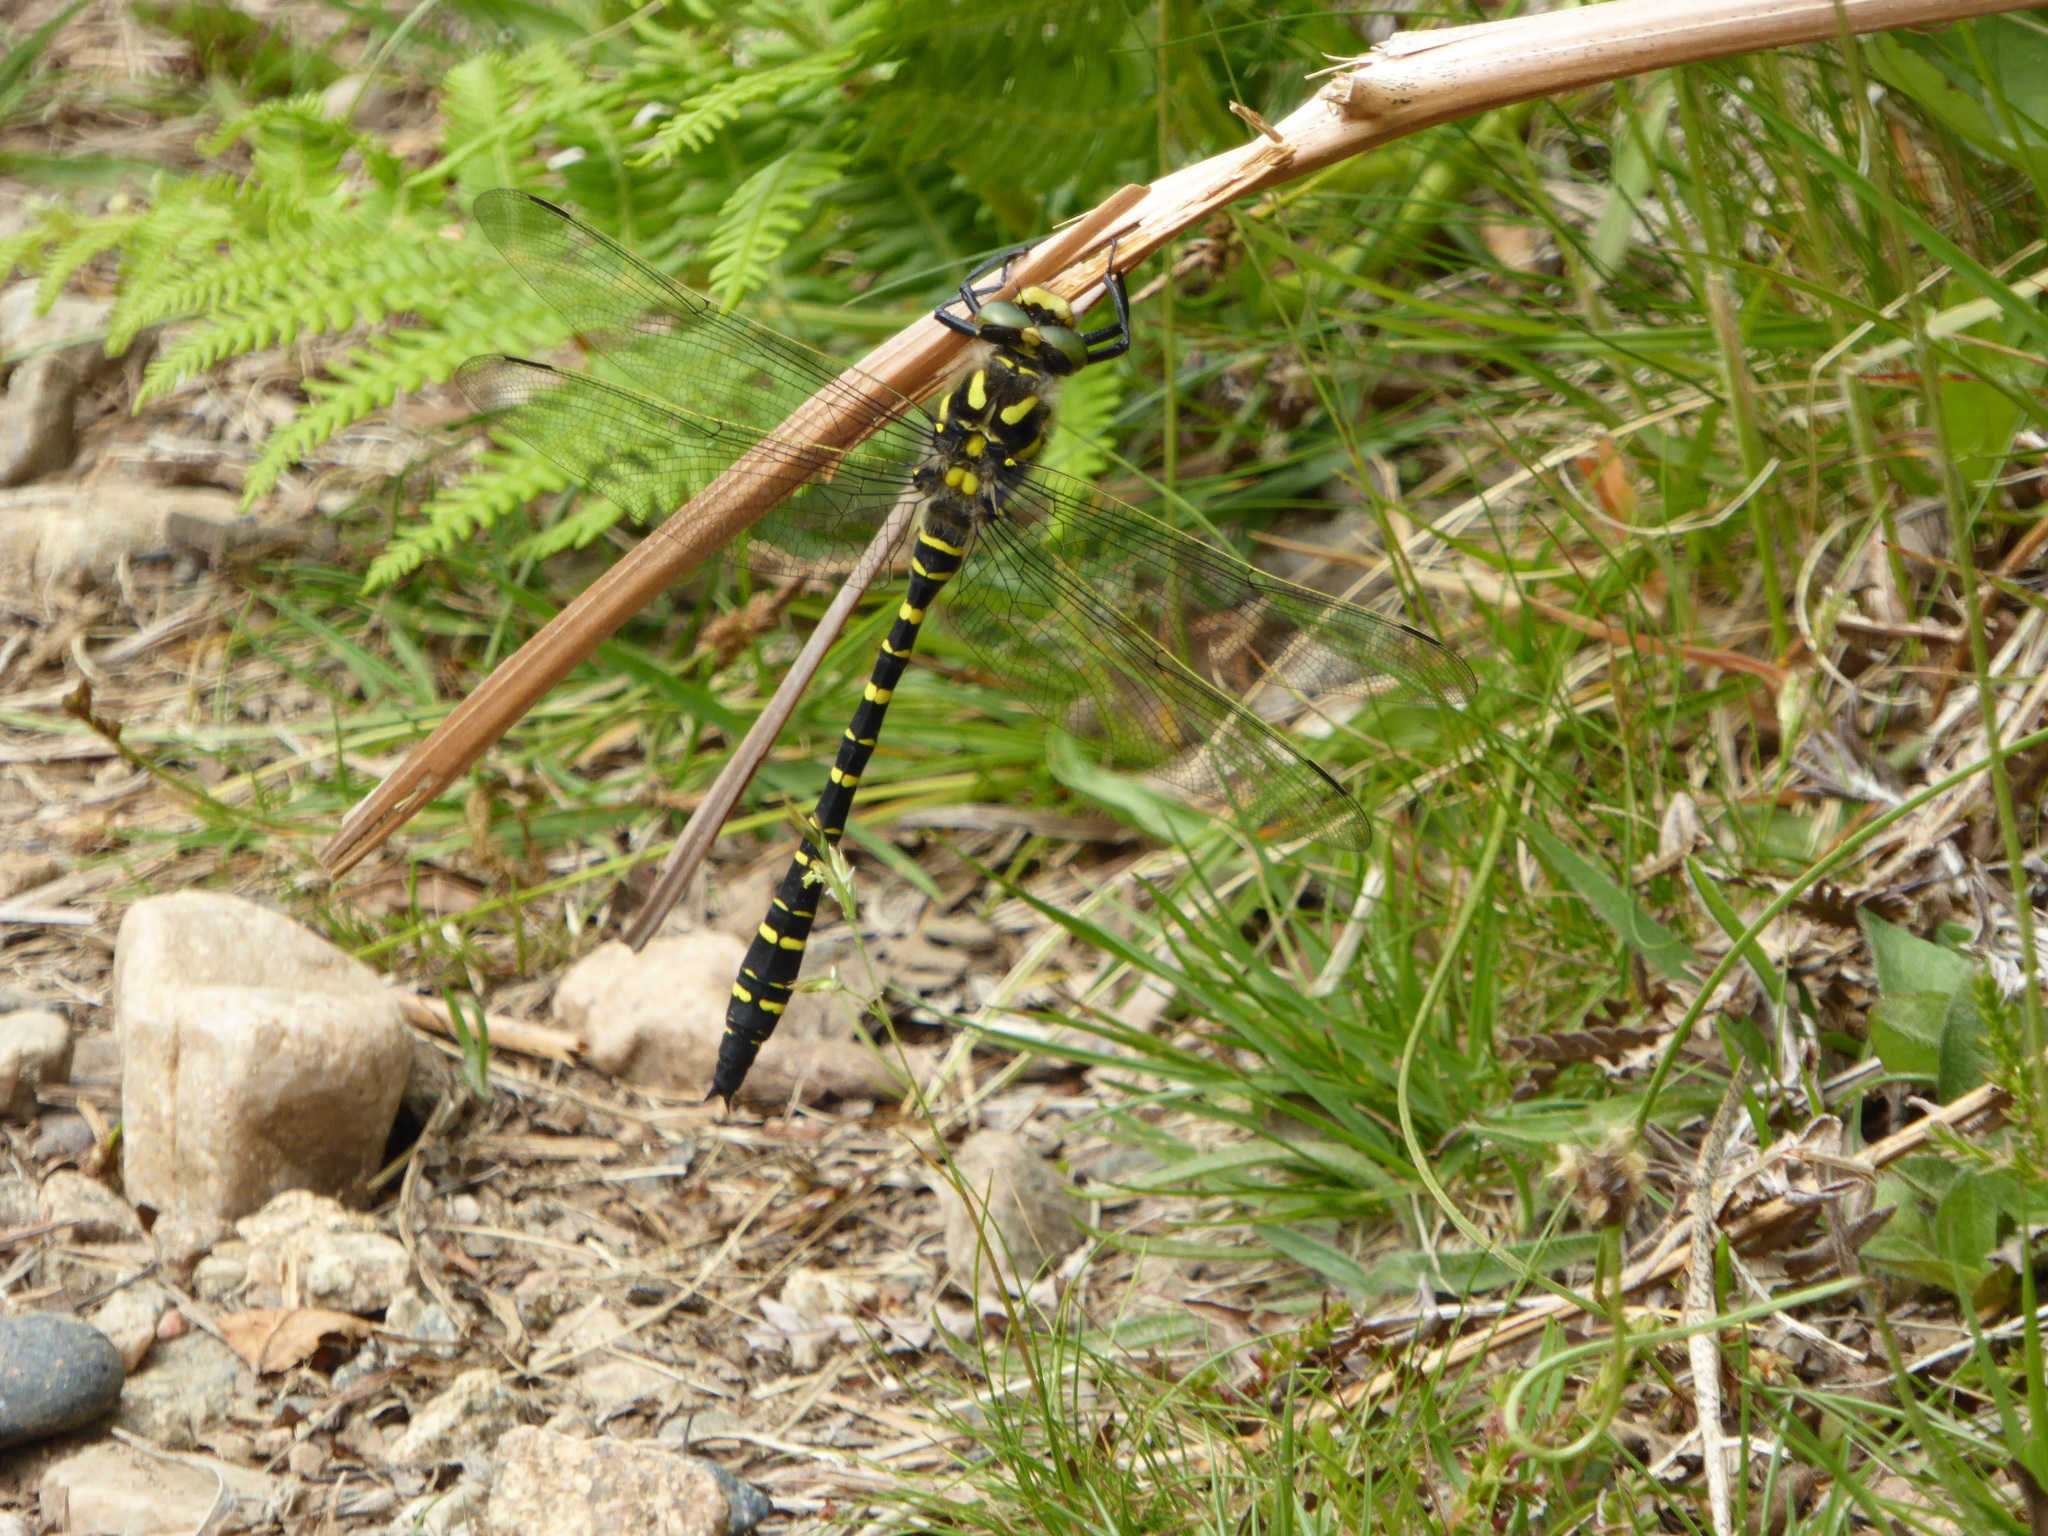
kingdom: Animalia
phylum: Arthropoda
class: Insecta
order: Odonata
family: Cordulegastridae
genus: Cordulegaster
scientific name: Cordulegaster boltonii
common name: Golden-ringed dragonfly
